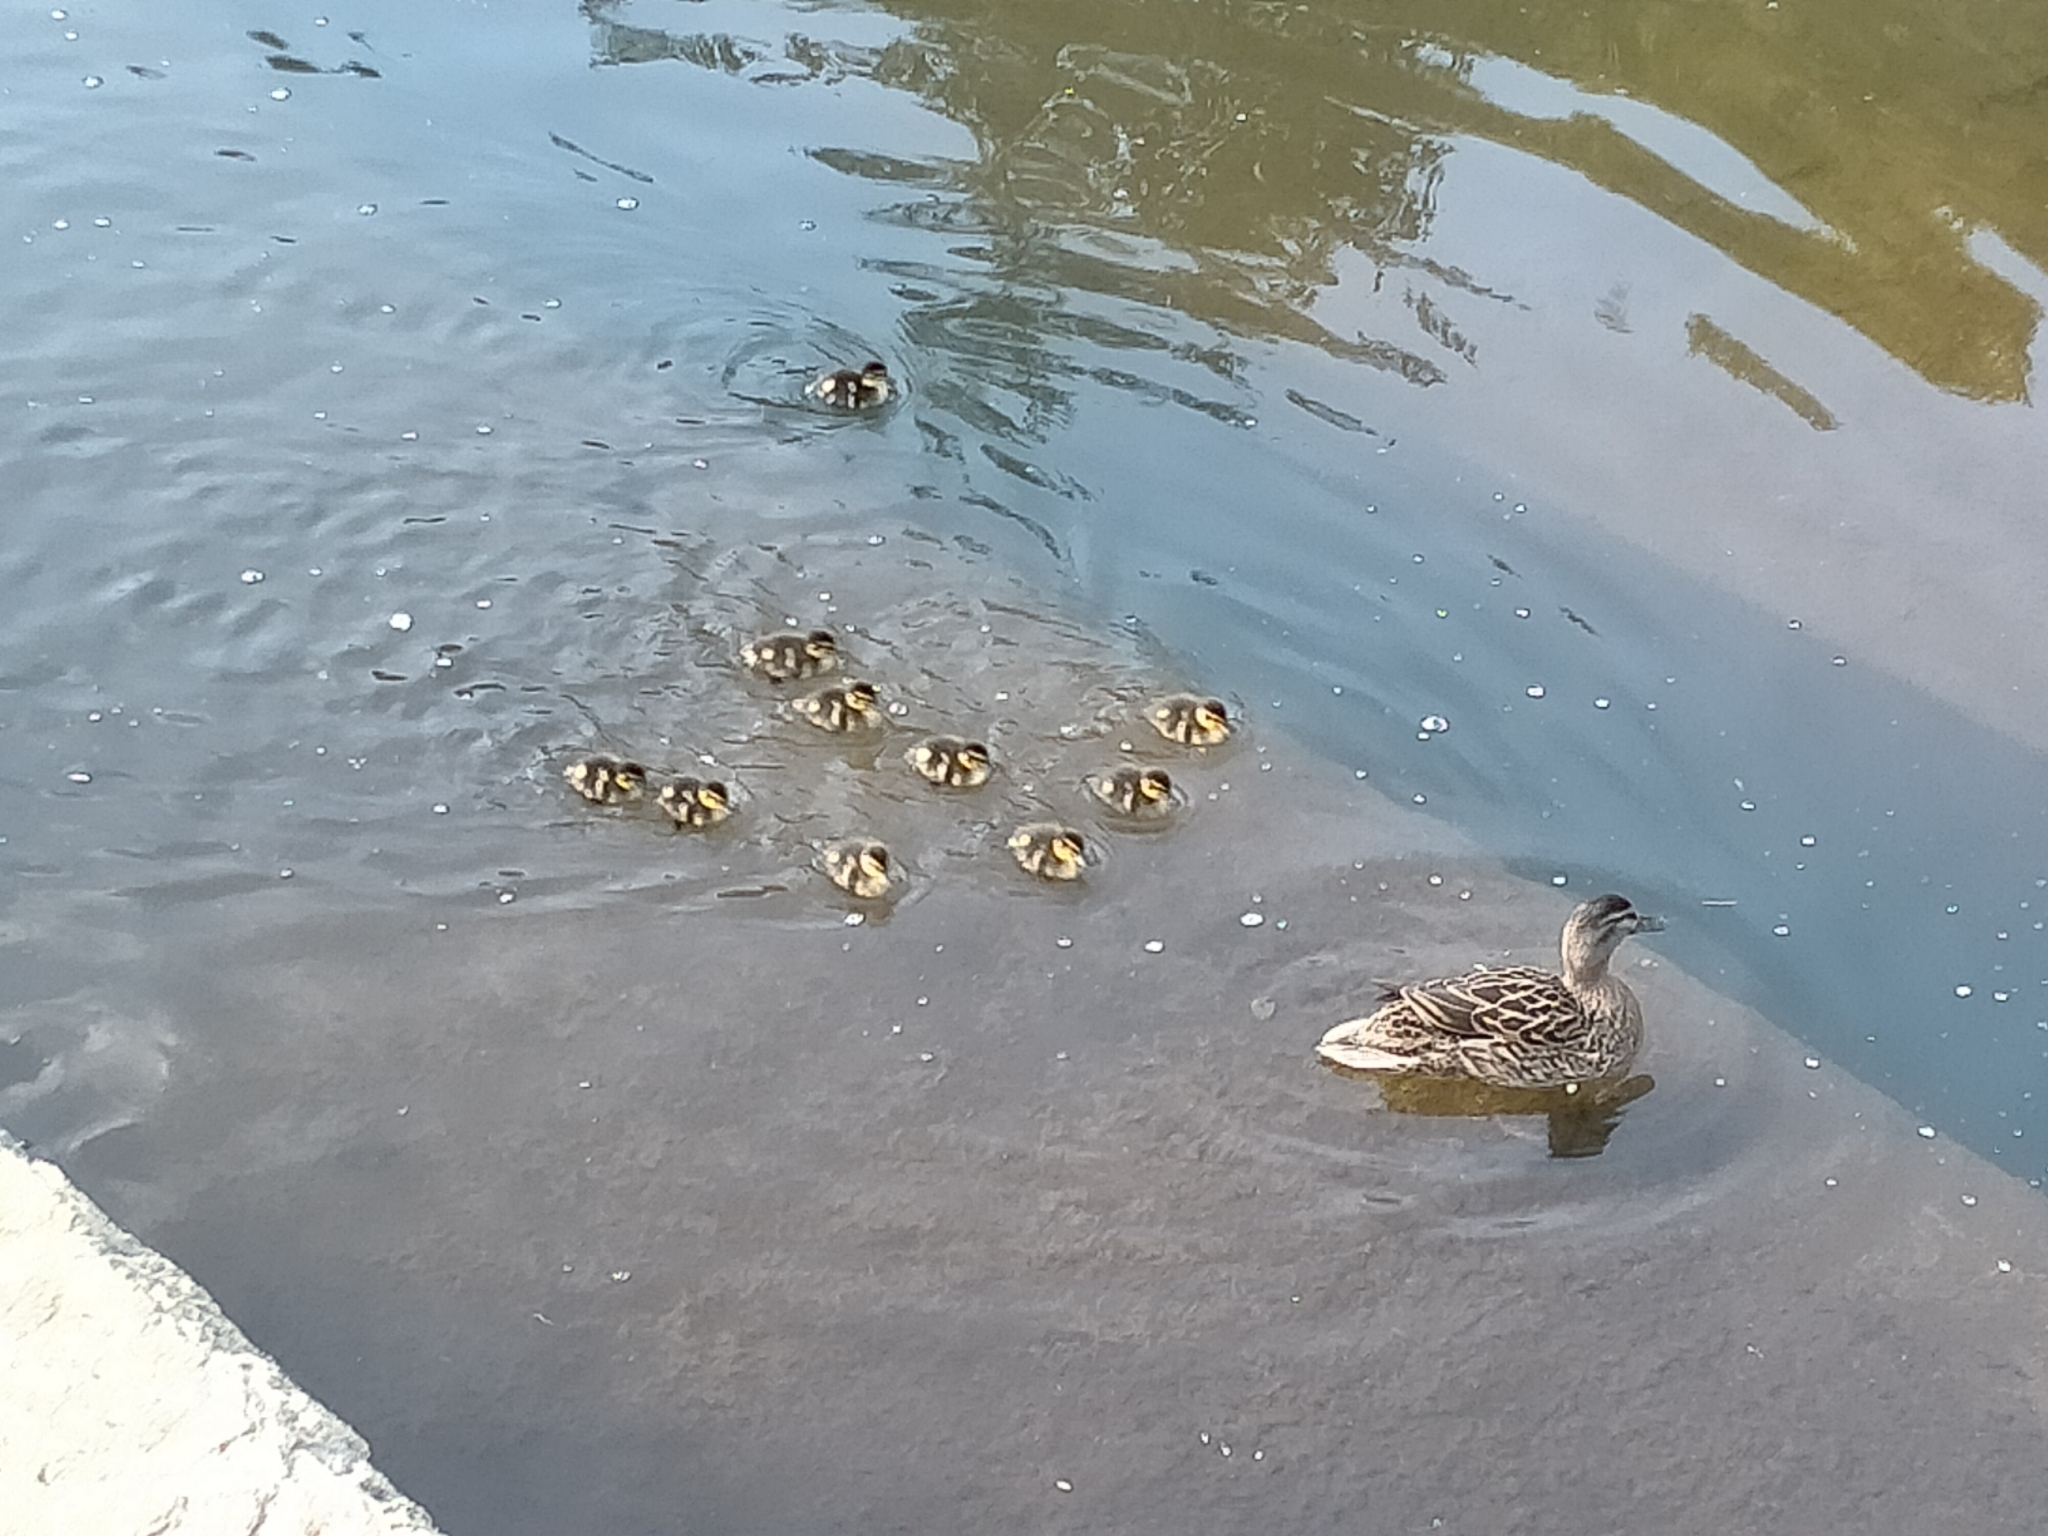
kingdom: Animalia
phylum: Chordata
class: Aves
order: Anseriformes
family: Anatidae
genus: Anas
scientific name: Anas
